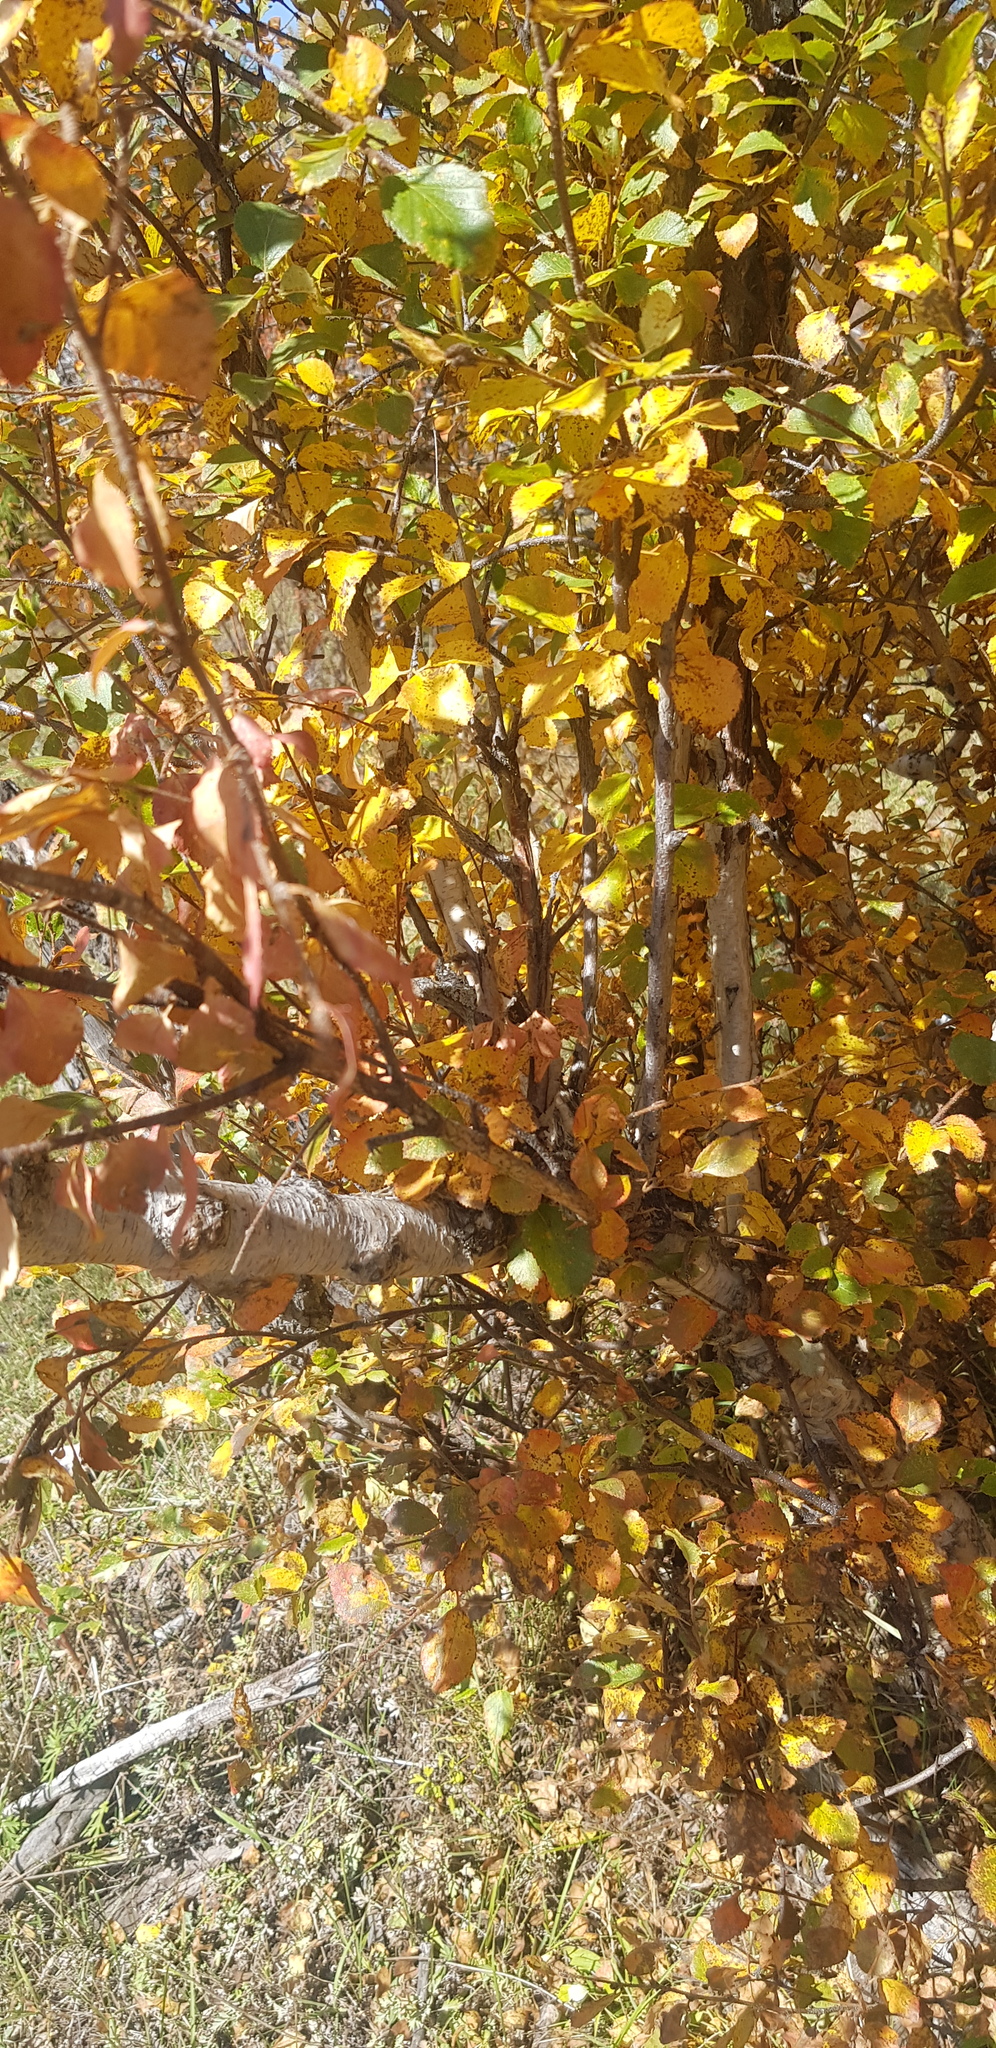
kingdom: Plantae
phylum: Tracheophyta
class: Magnoliopsida
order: Fagales
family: Betulaceae
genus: Betula
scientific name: Betula pendula
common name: Silver birch
